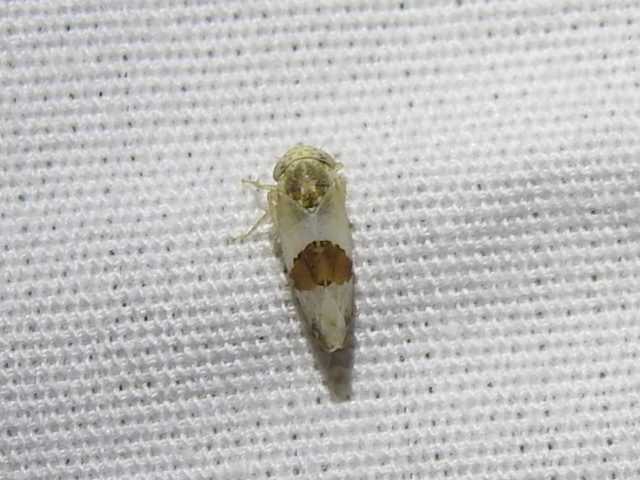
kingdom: Animalia
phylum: Arthropoda
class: Insecta
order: Hemiptera
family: Cicadellidae
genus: Norvellina
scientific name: Norvellina seminuda
